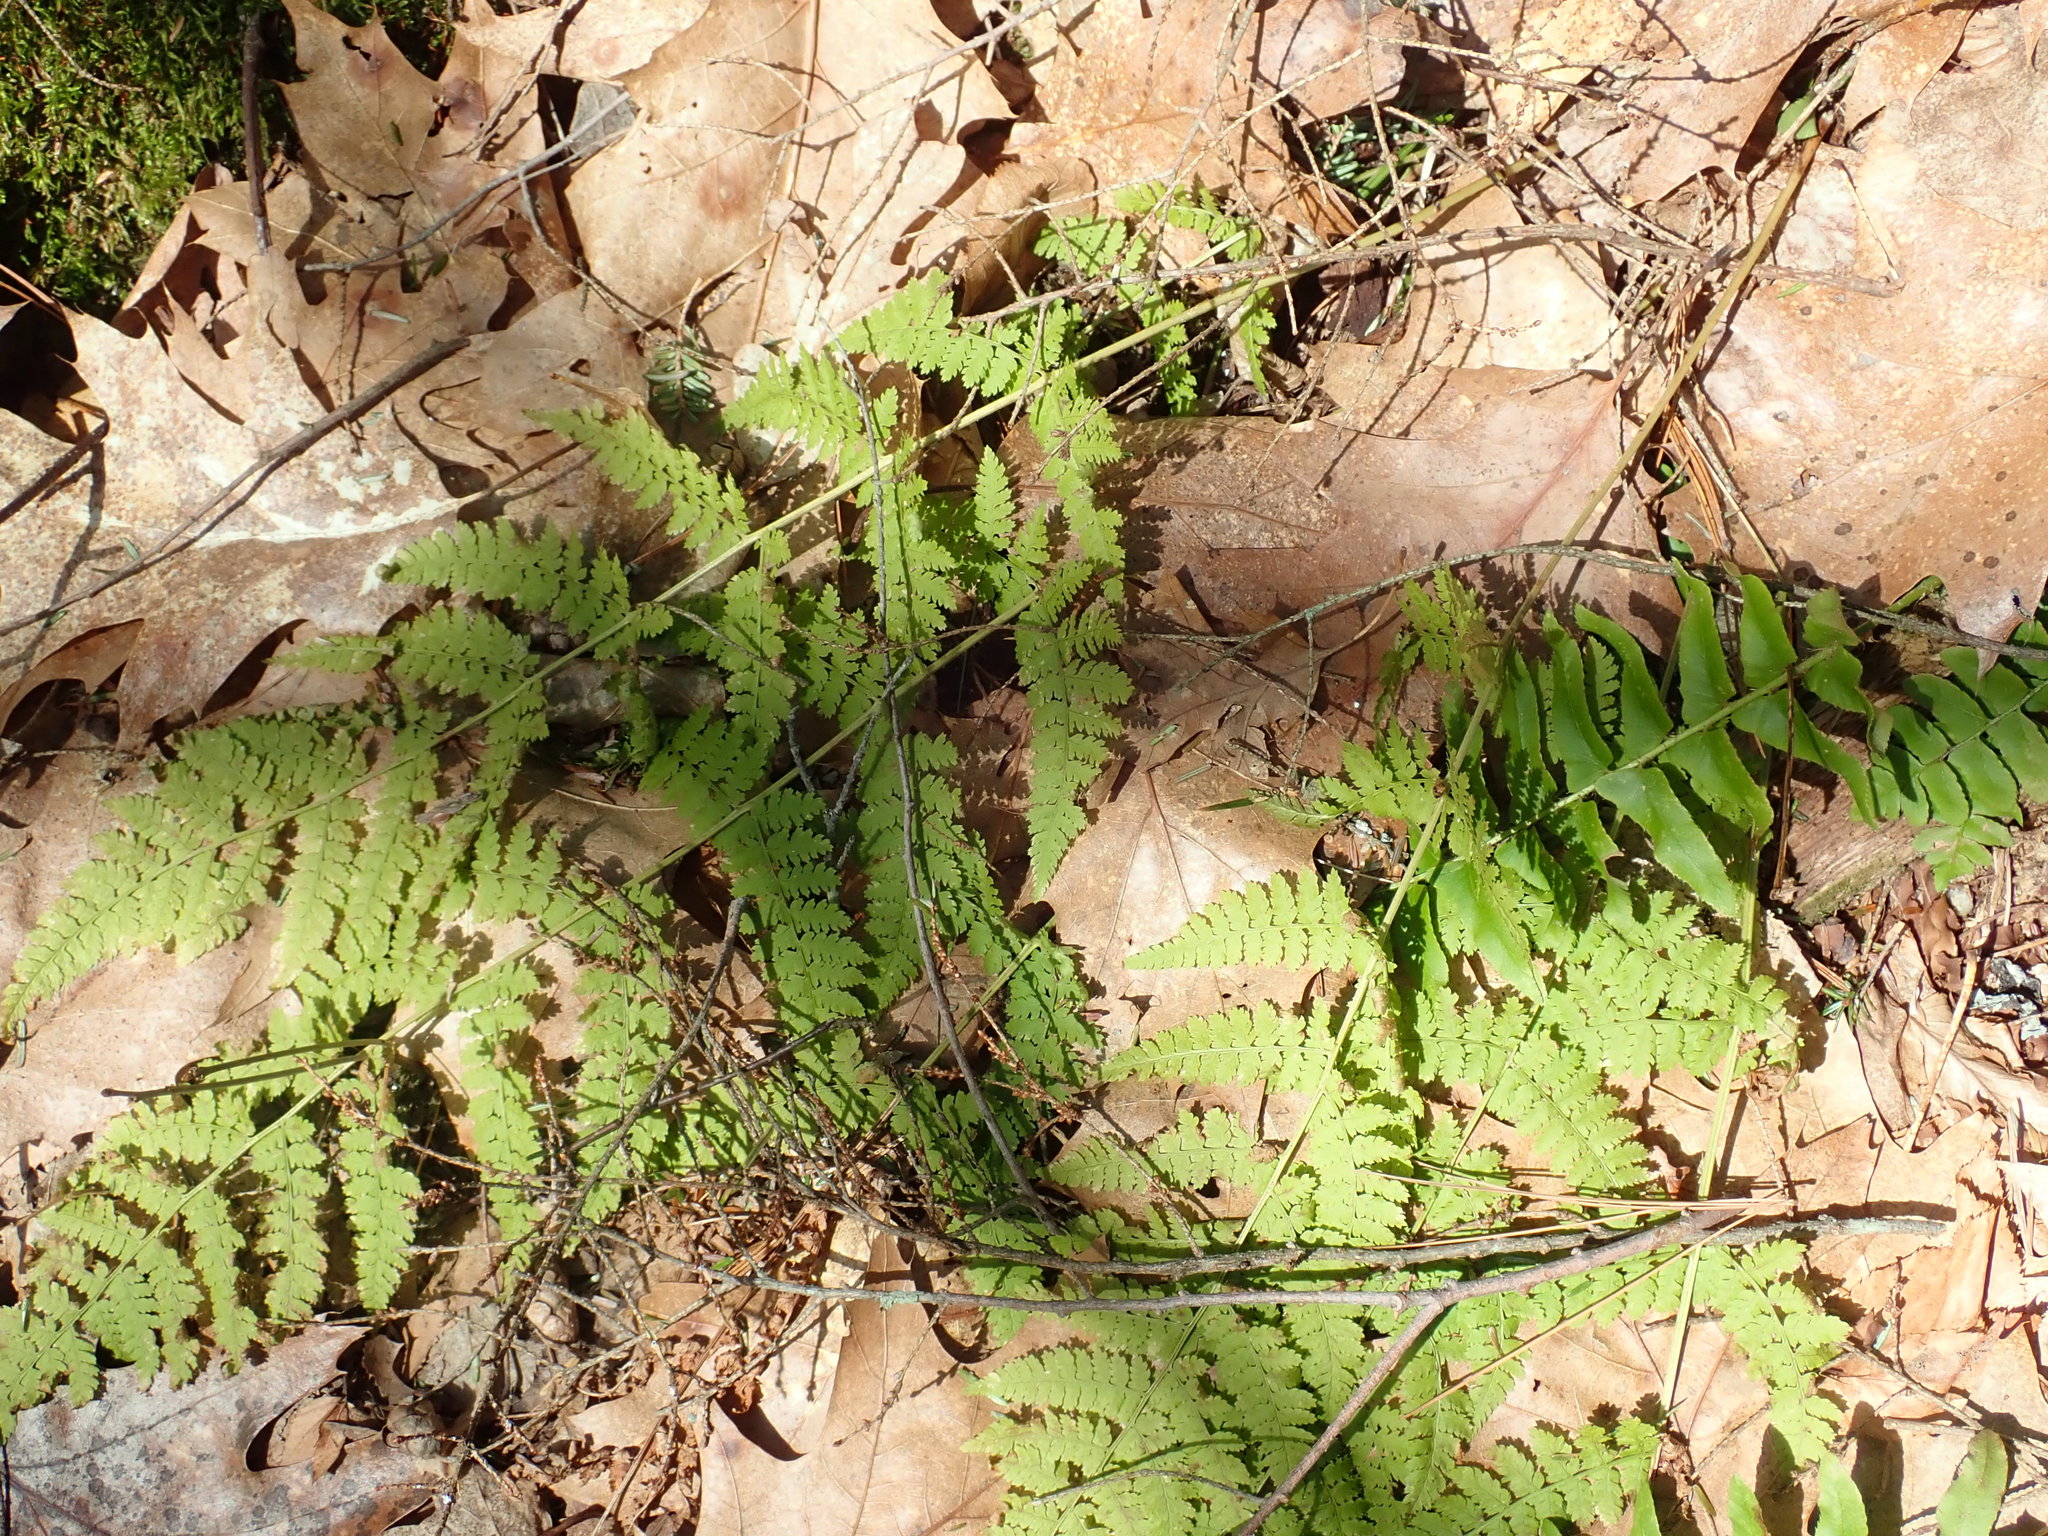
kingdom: Plantae
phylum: Tracheophyta
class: Polypodiopsida
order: Polypodiales
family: Dryopteridaceae
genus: Dryopteris
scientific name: Dryopteris intermedia
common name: Evergreen wood fern
